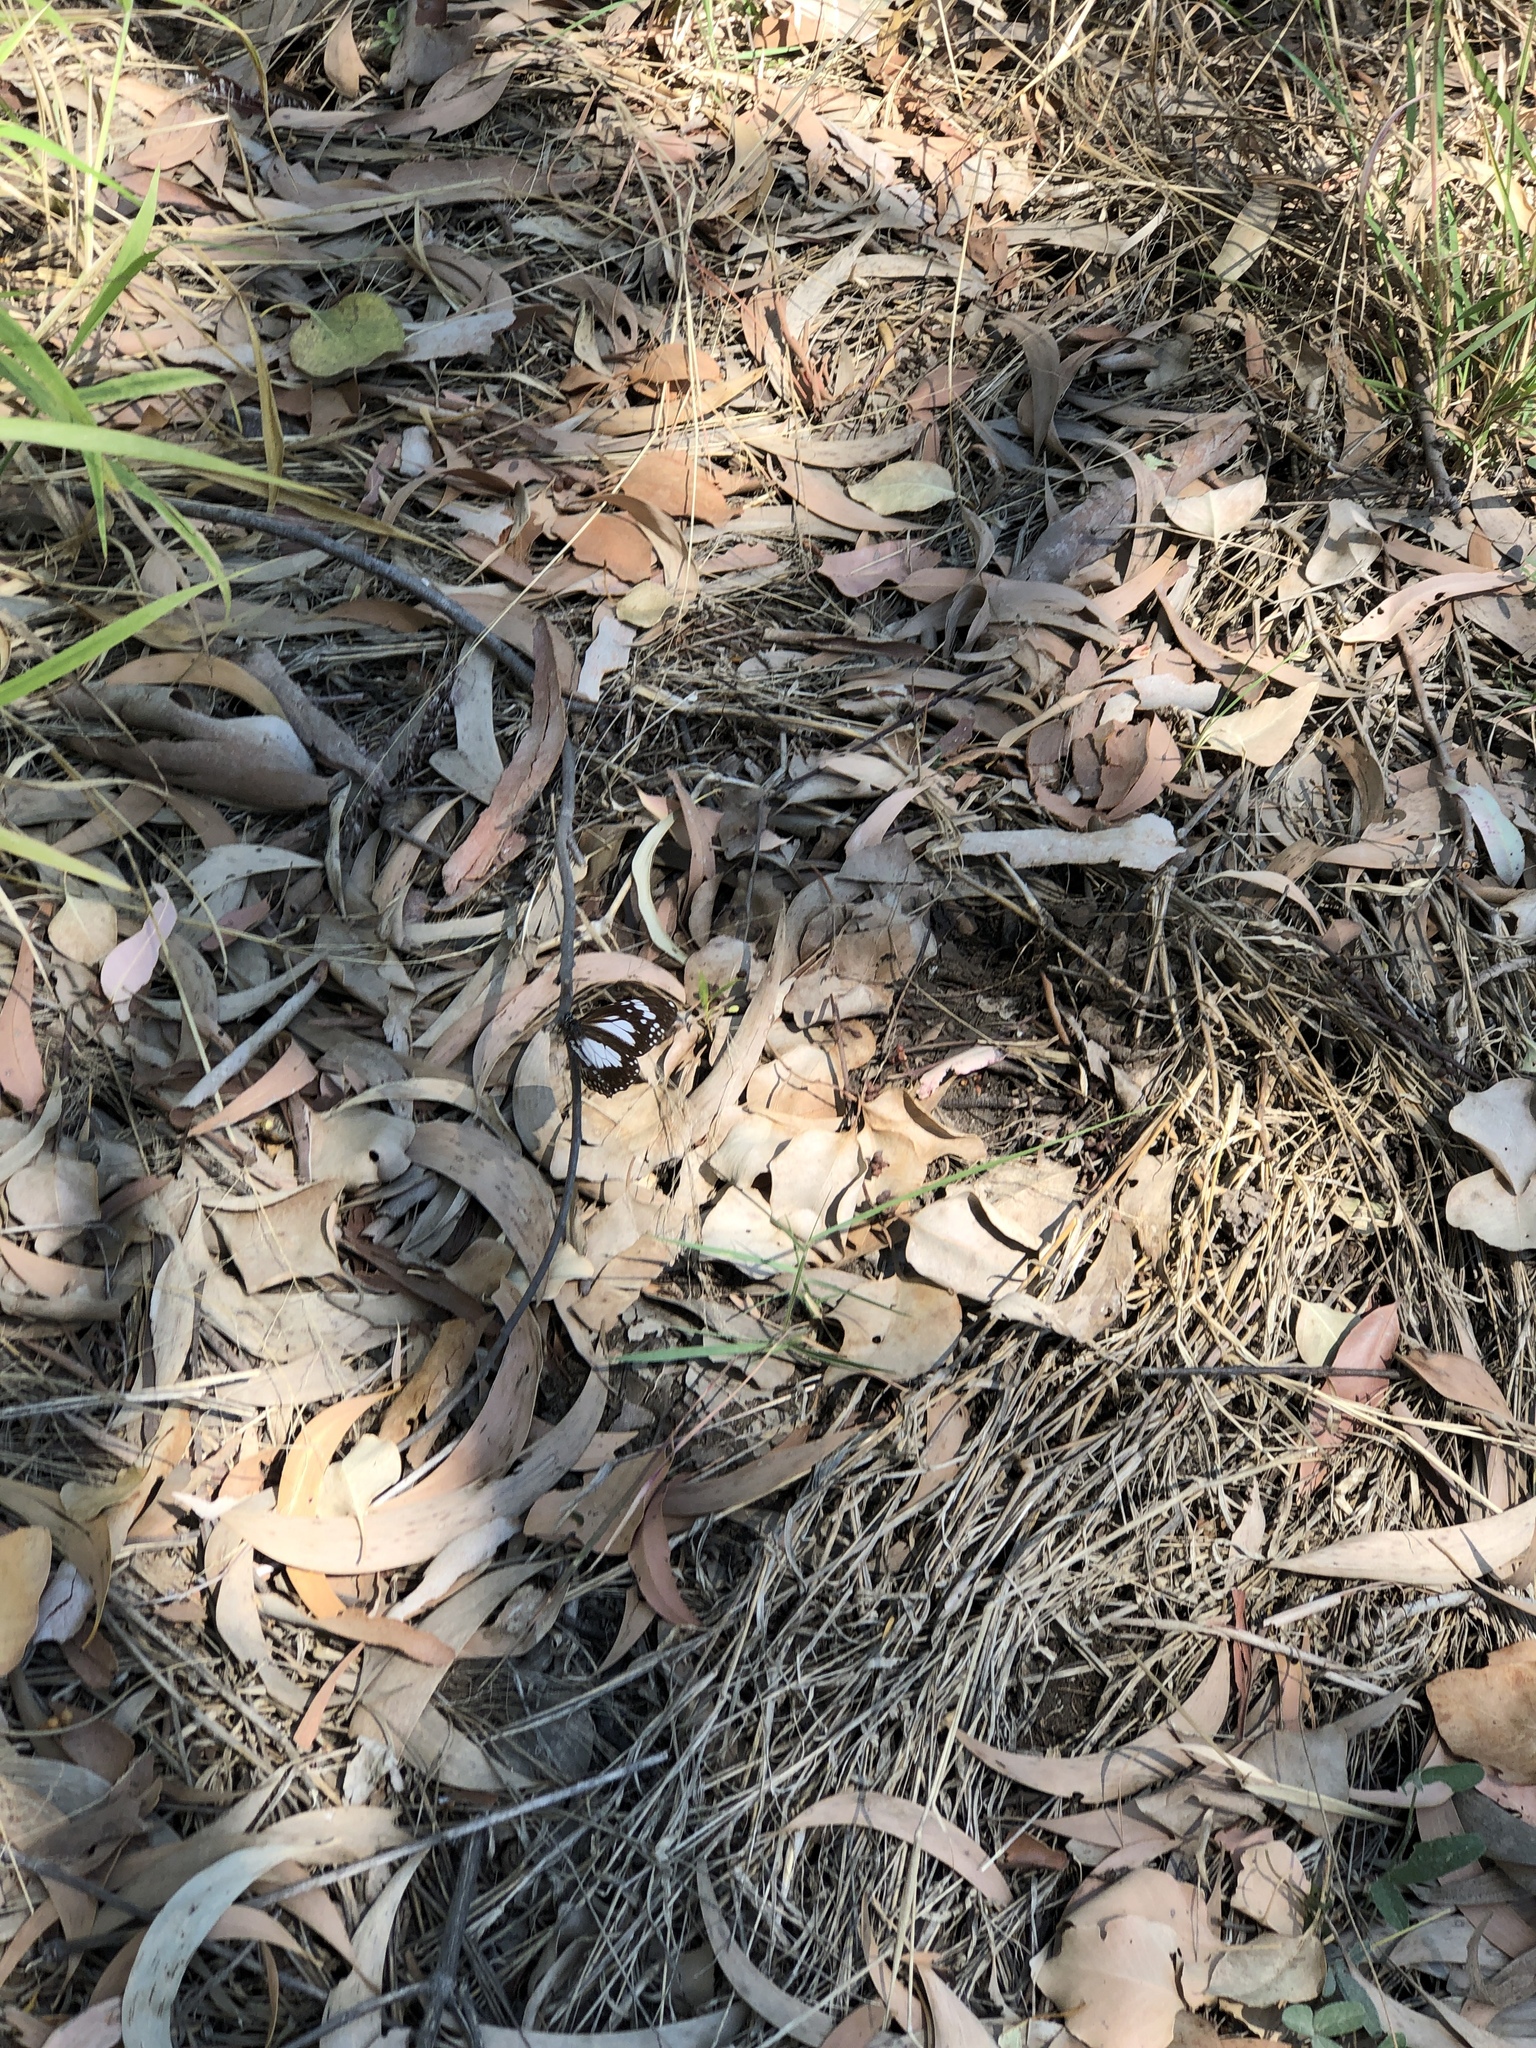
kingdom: Animalia
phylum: Arthropoda
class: Insecta
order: Lepidoptera
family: Nymphalidae
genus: Danaus
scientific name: Danaus affinis
